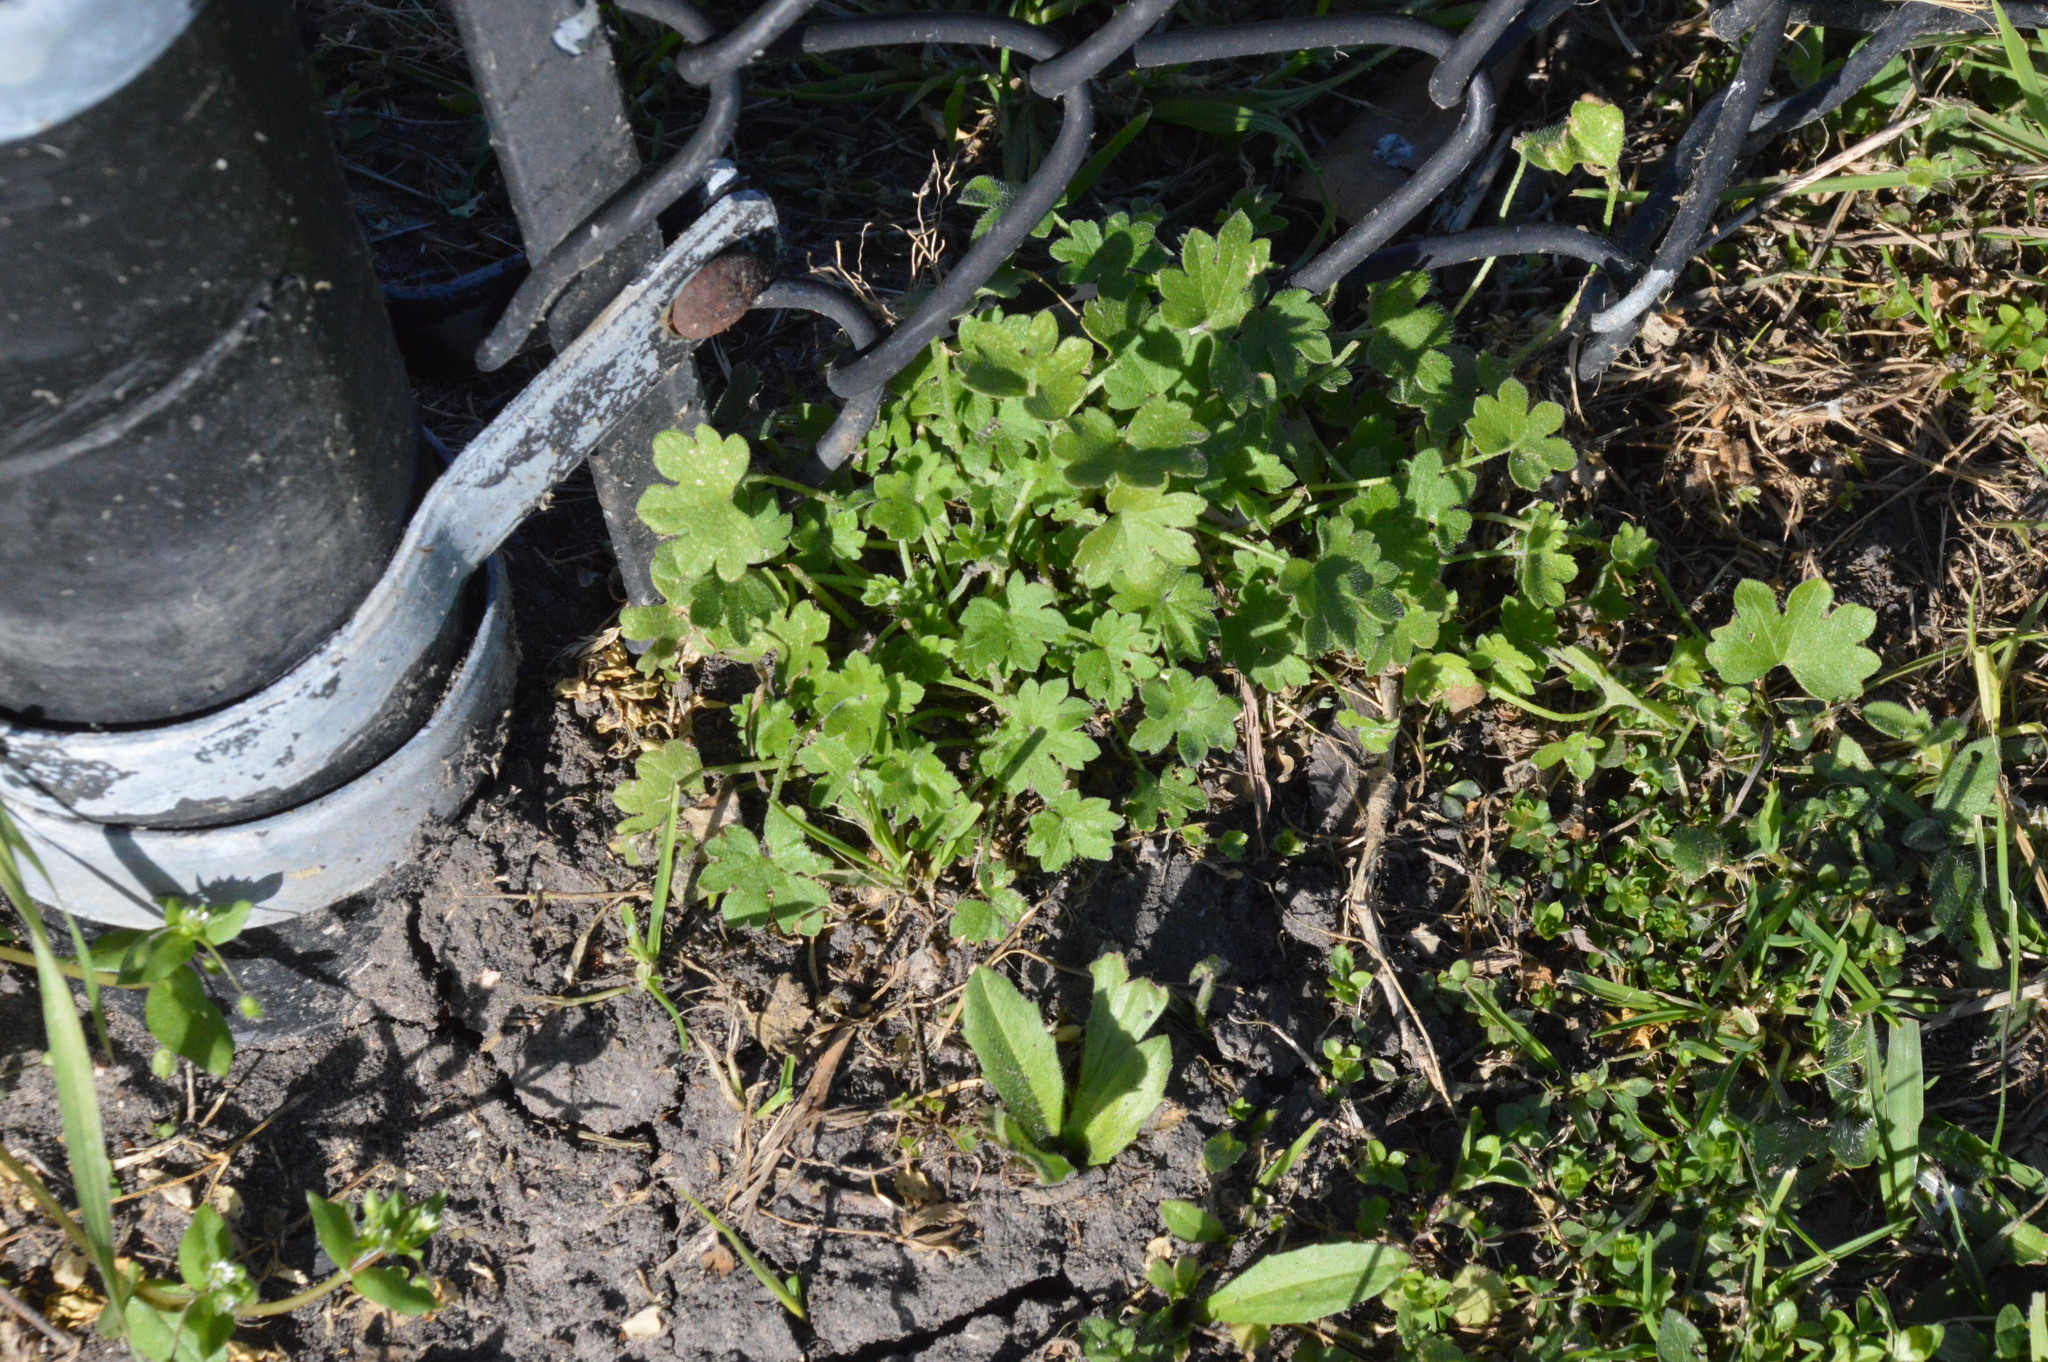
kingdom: Plantae
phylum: Tracheophyta
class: Magnoliopsida
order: Apiales
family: Apiaceae
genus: Bowlesia
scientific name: Bowlesia incana
